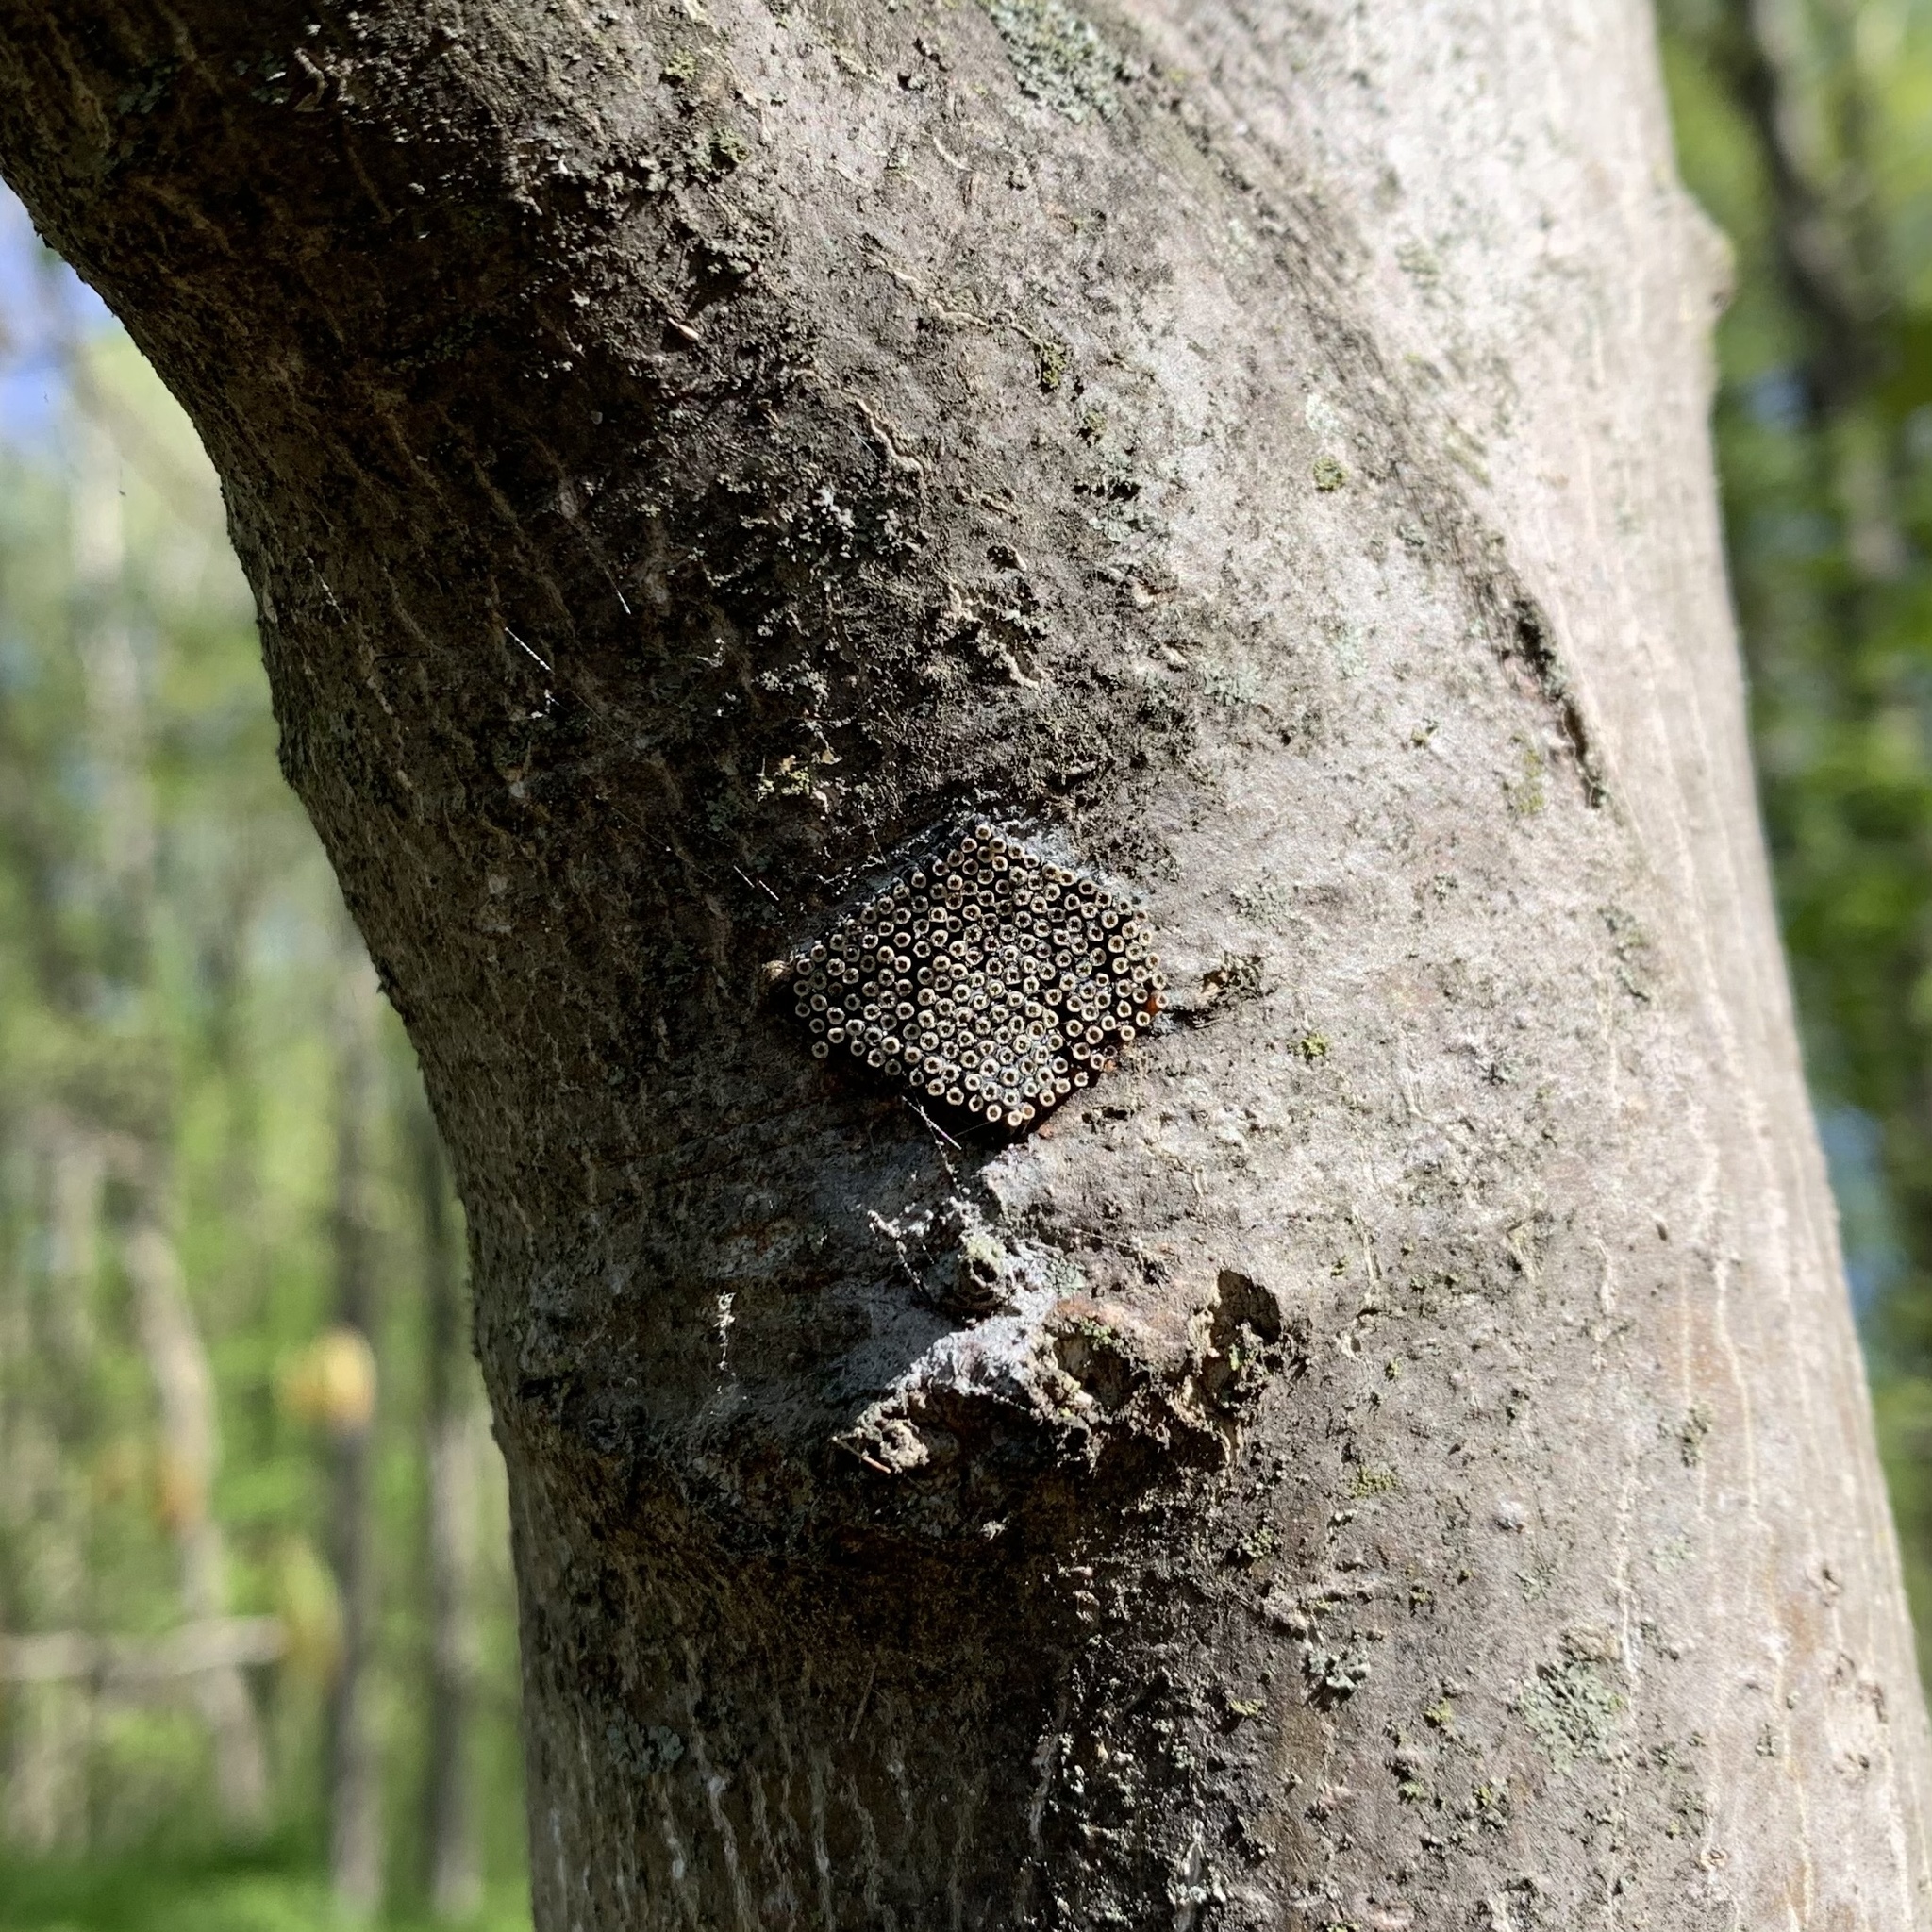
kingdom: Animalia
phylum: Arthropoda
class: Insecta
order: Hemiptera
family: Reduviidae
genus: Arilus
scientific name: Arilus cristatus
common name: North american wheel bug
